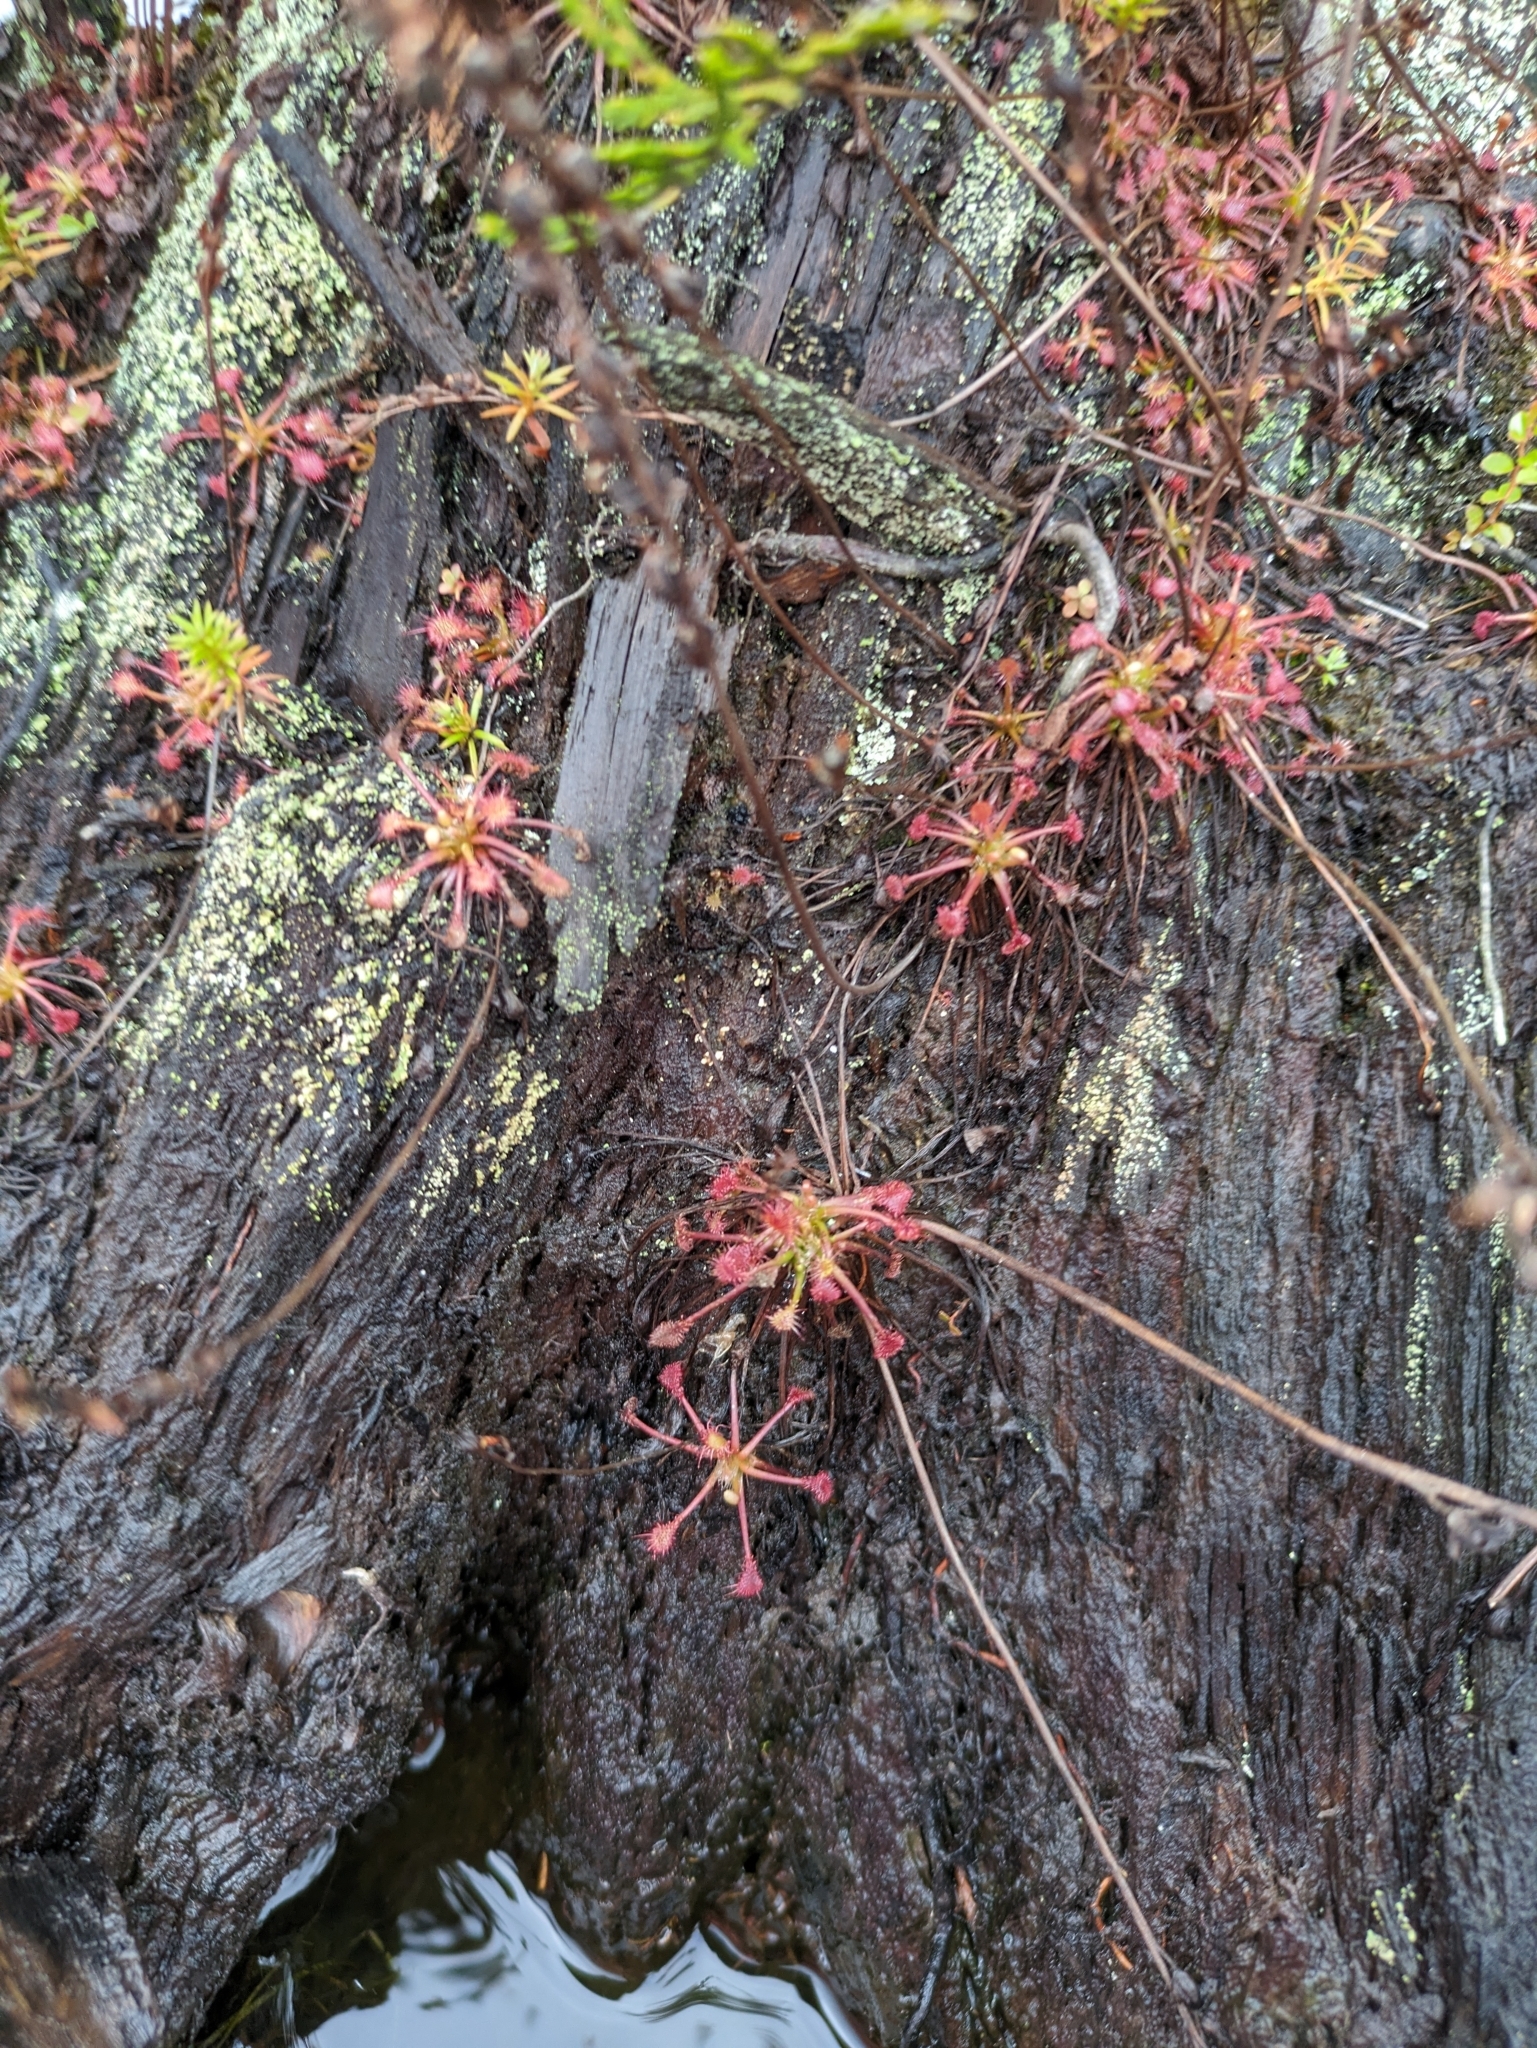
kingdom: Plantae
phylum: Tracheophyta
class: Magnoliopsida
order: Caryophyllales
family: Droseraceae
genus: Drosera
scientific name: Drosera intermedia
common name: Oblong-leaved sundew
